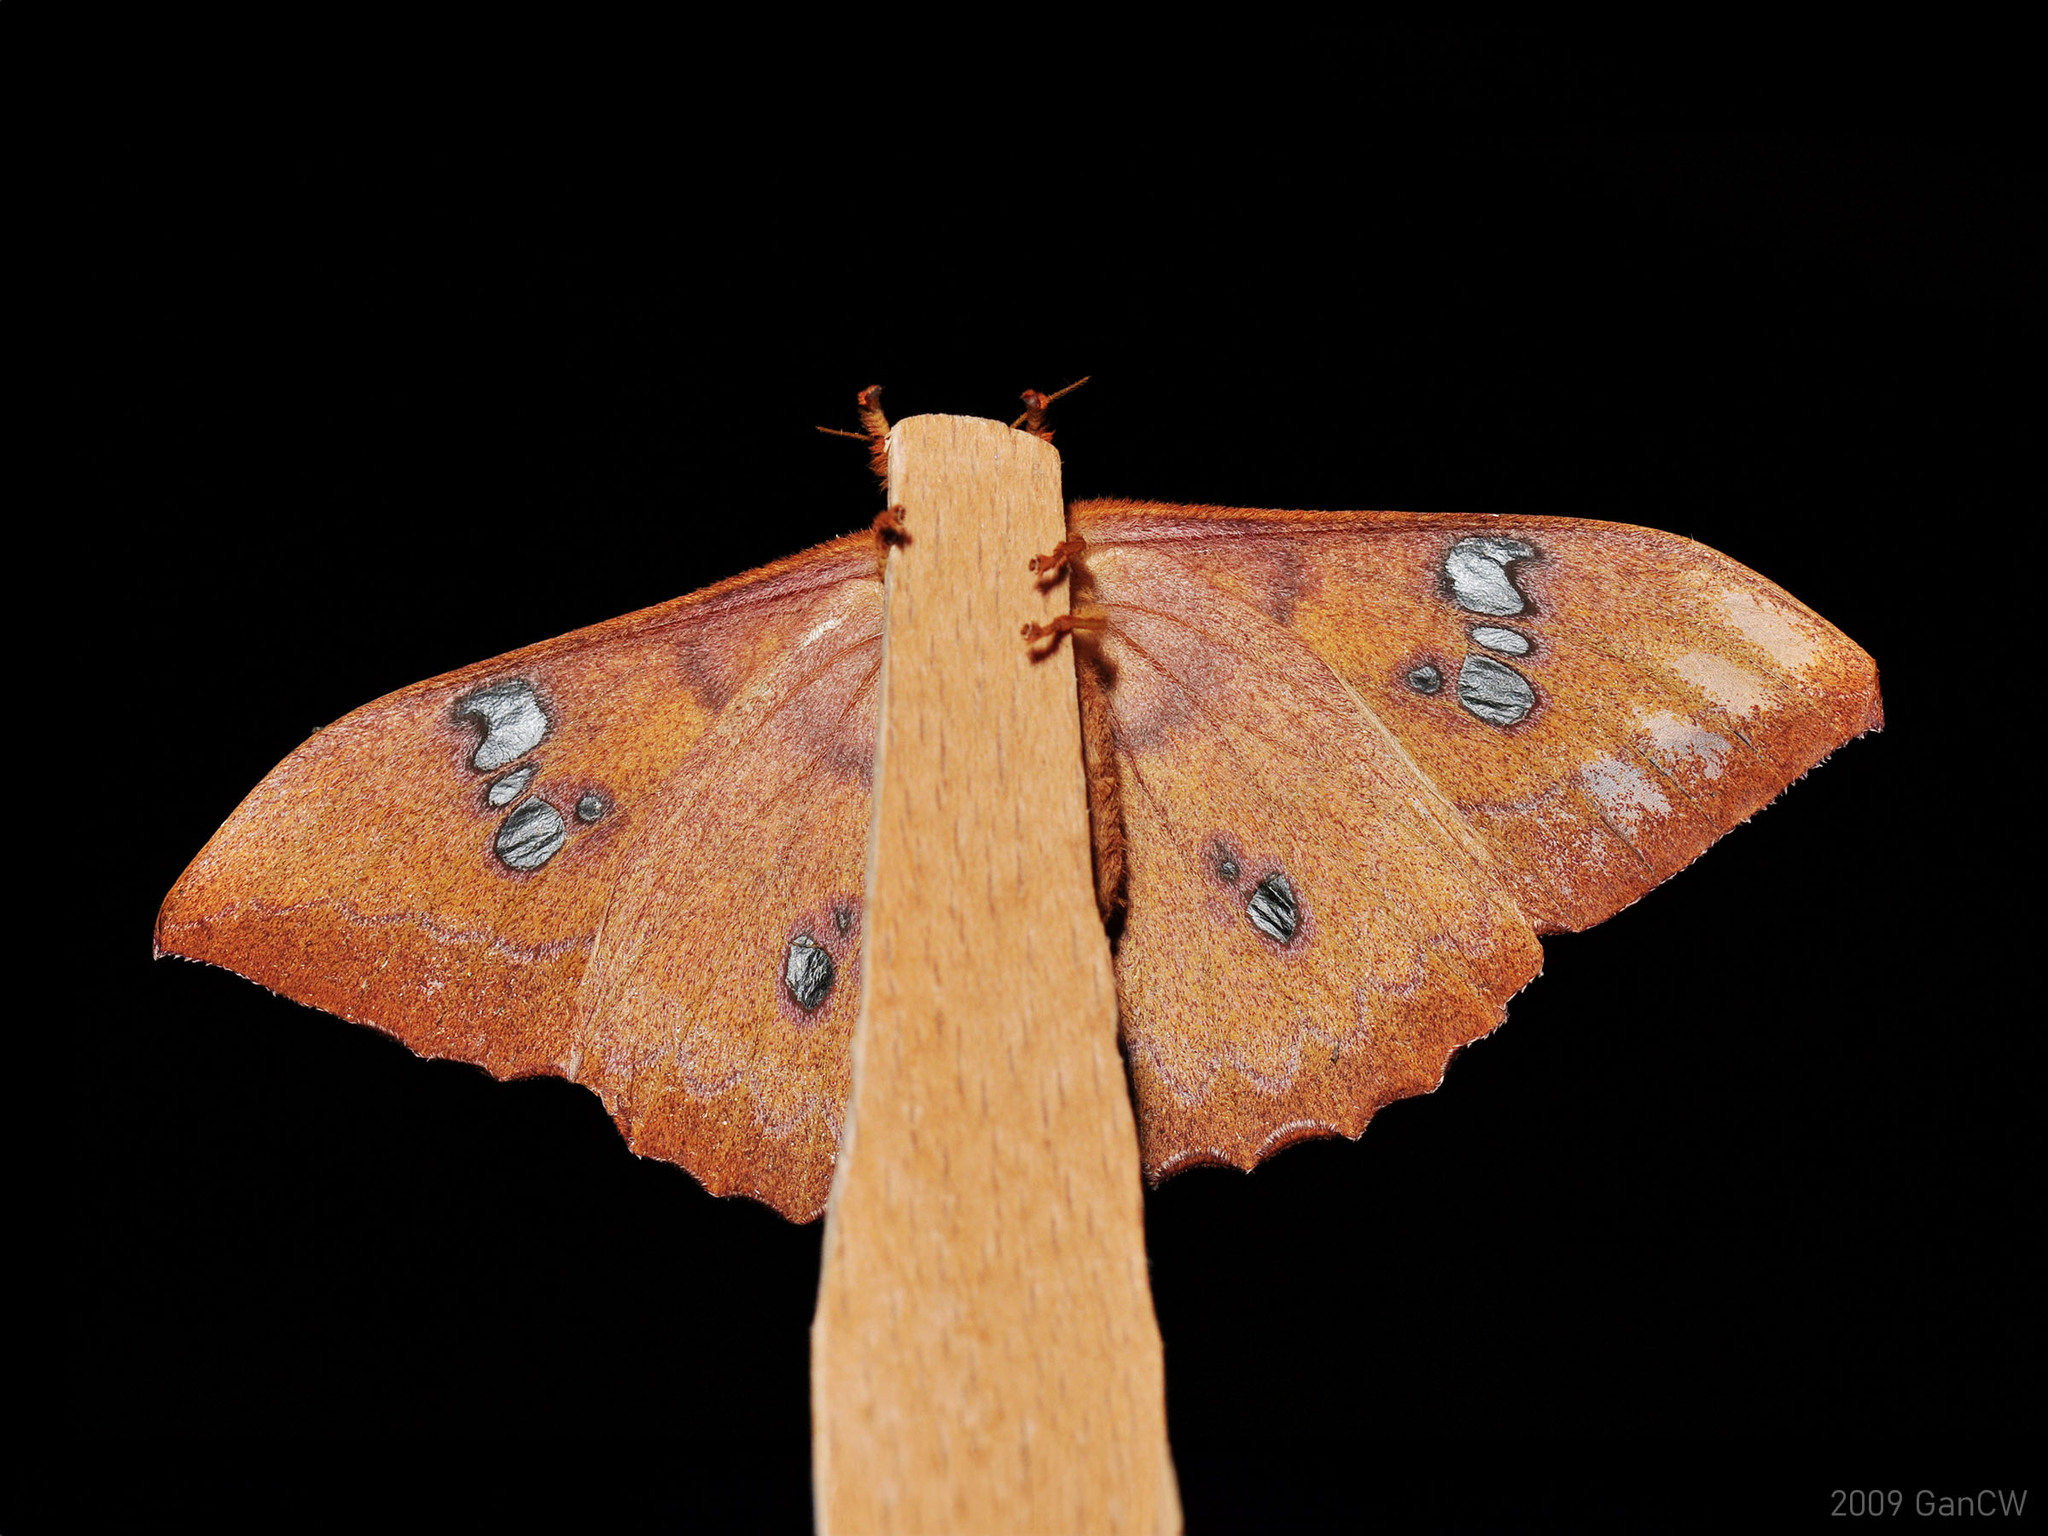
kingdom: Animalia
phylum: Arthropoda
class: Insecta
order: Lepidoptera
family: Saturniidae
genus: Cricula
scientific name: Cricula elaezia
